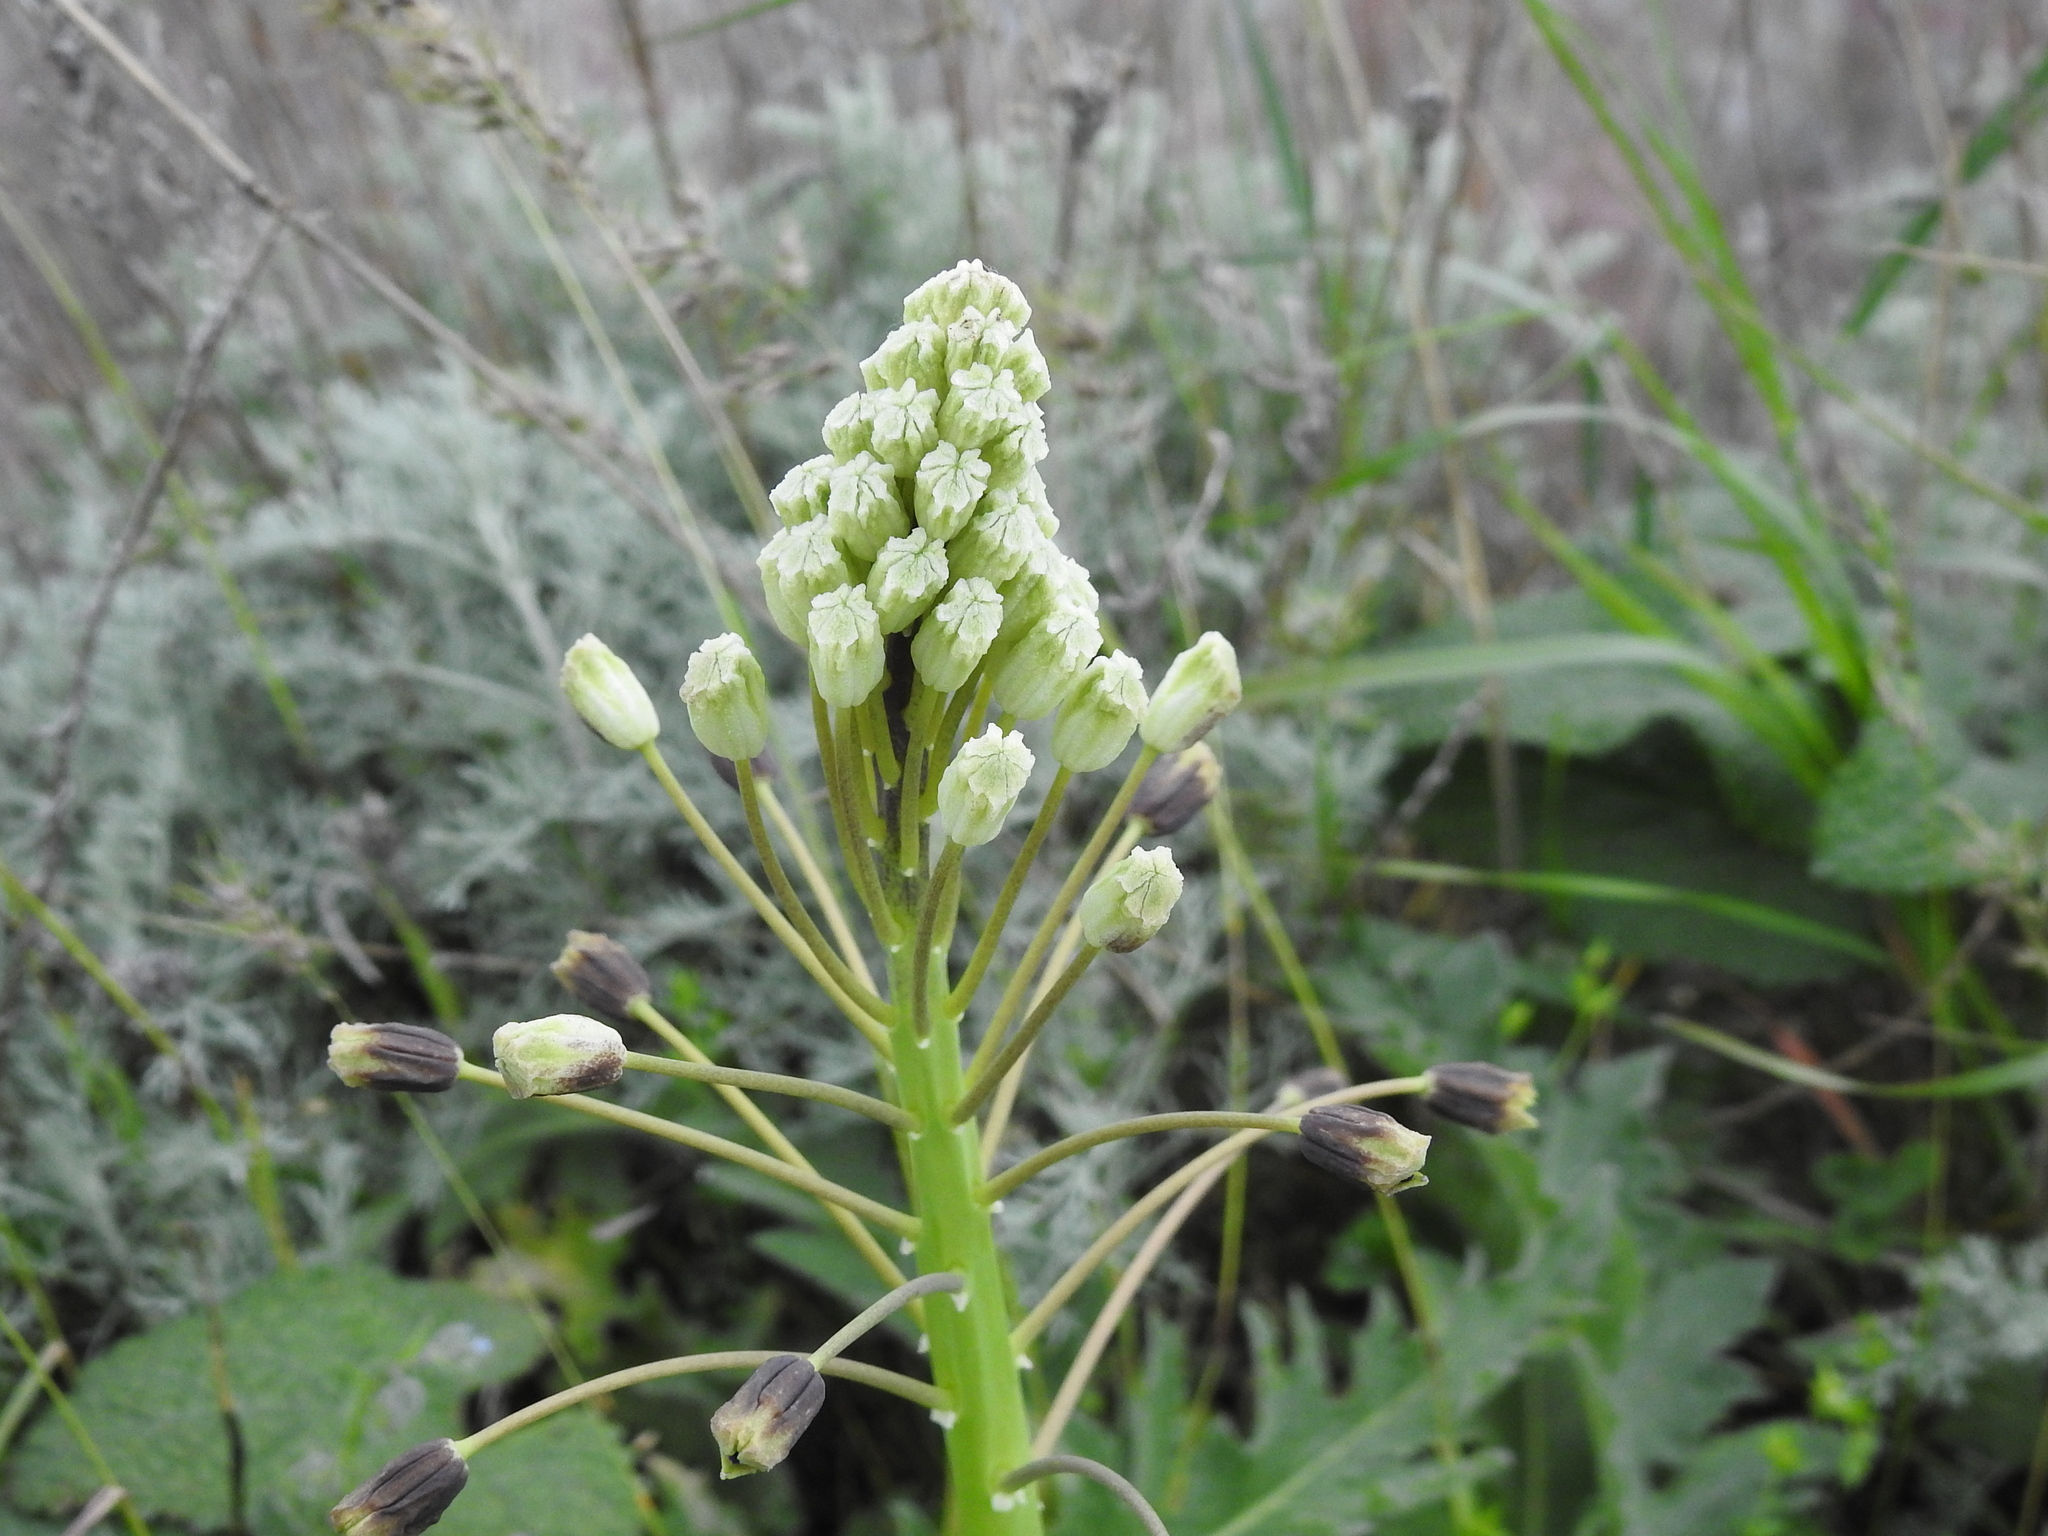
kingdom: Plantae
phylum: Tracheophyta
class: Liliopsida
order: Asparagales
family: Asparagaceae
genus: Bellevalia
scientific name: Bellevalia speciosa
